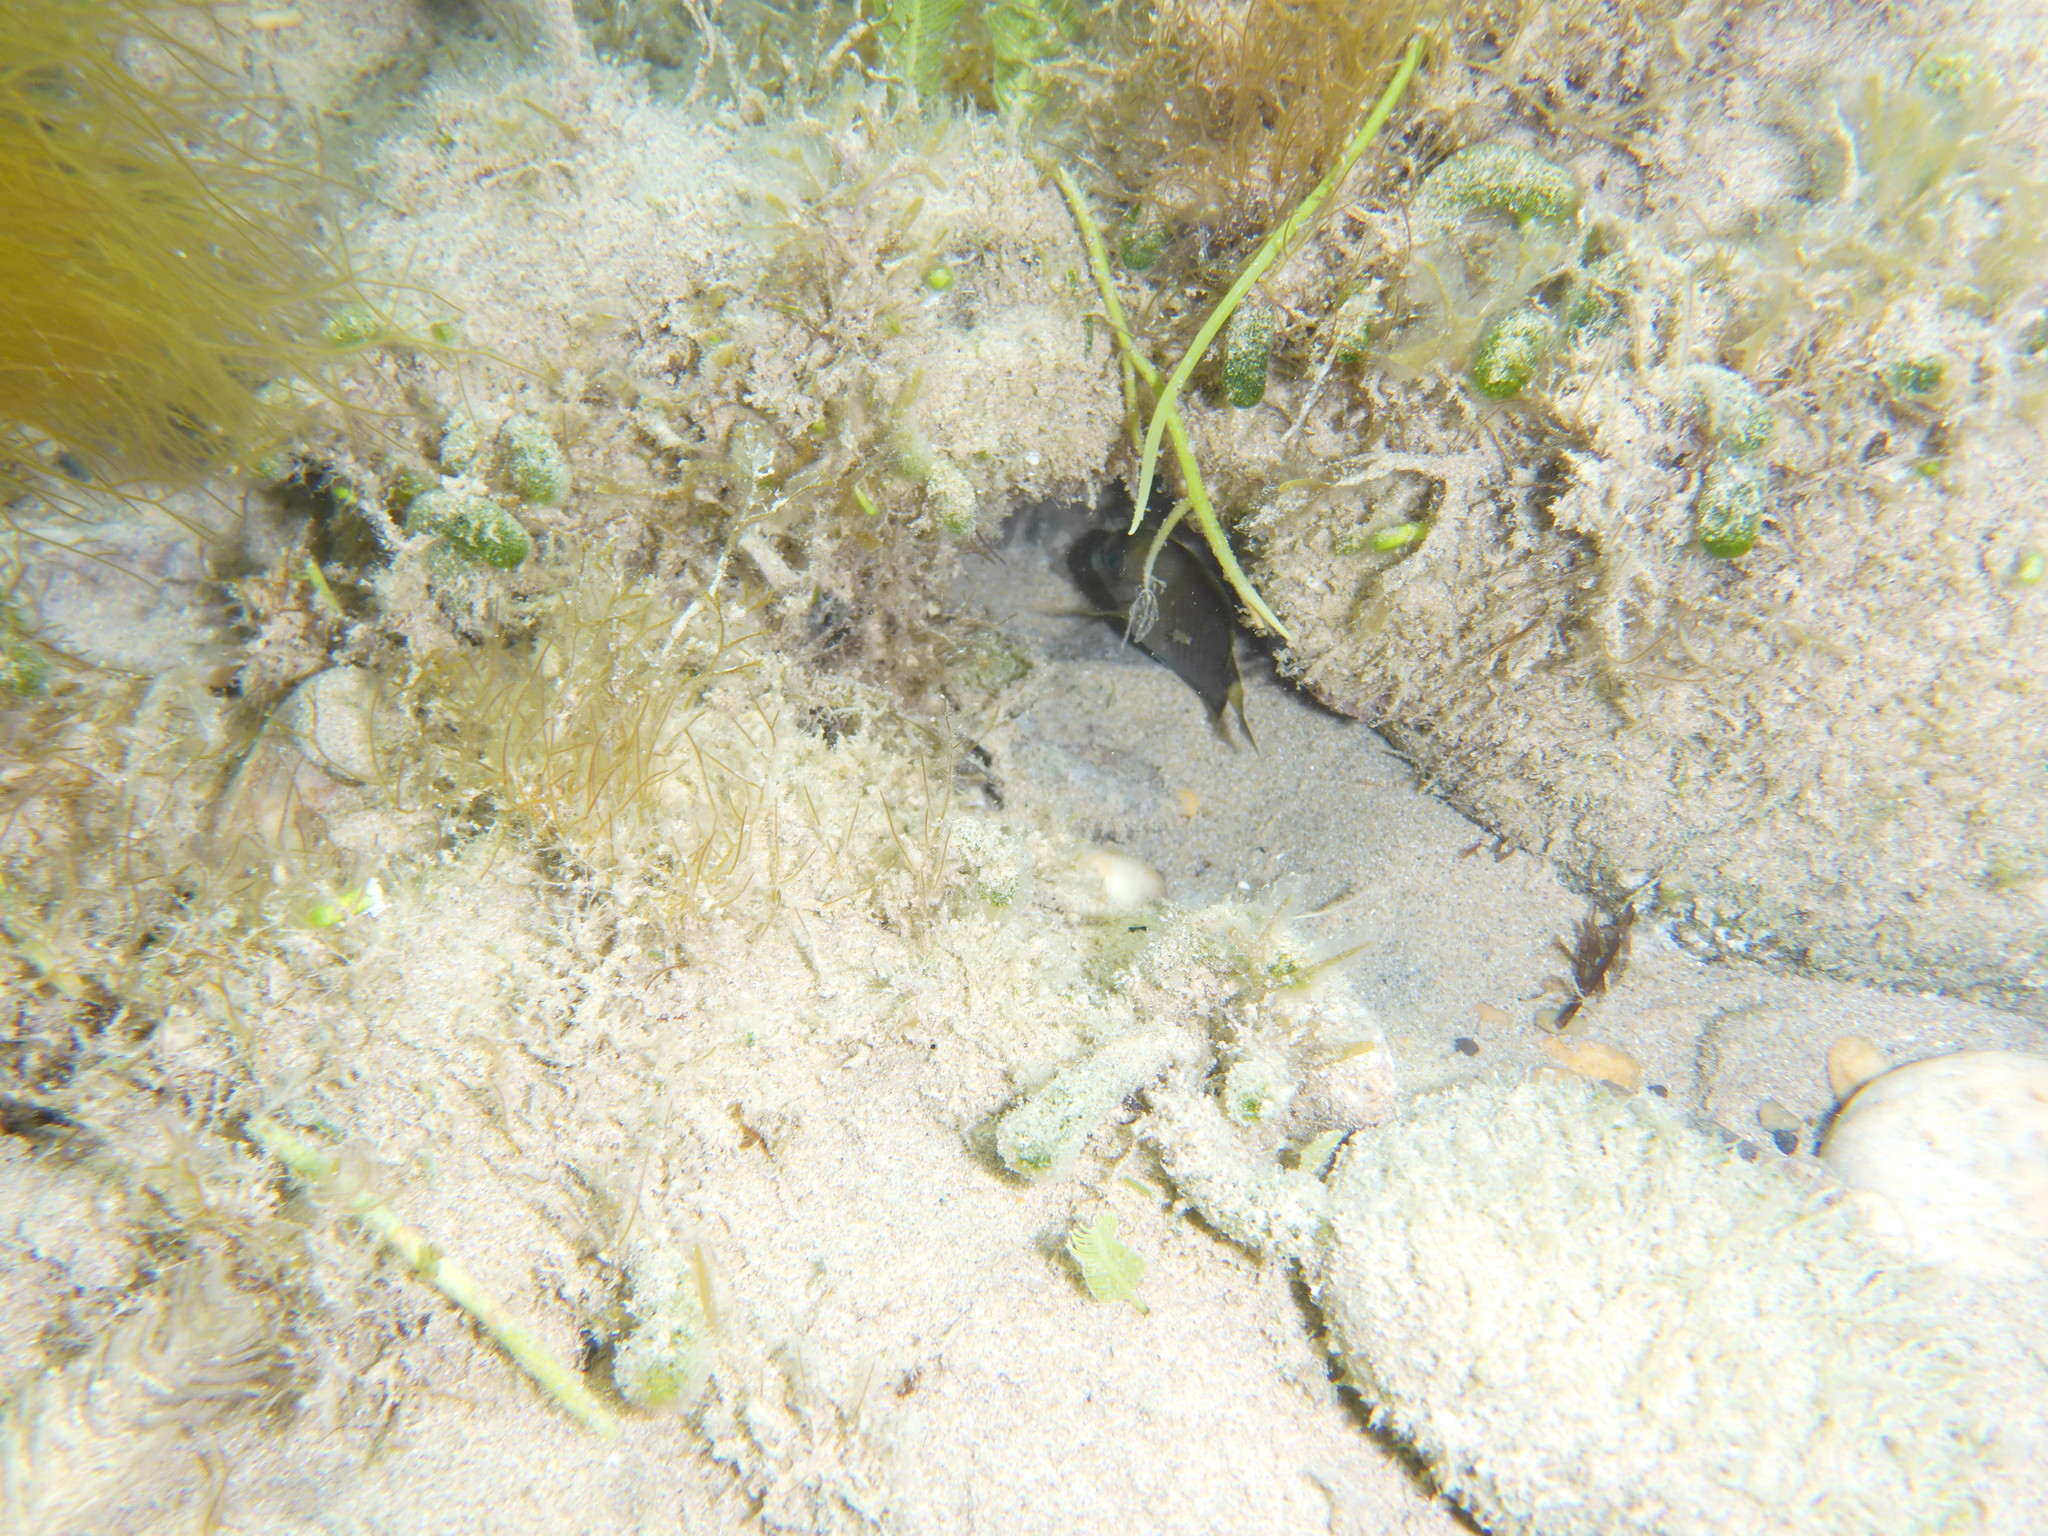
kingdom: Animalia
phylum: Chordata
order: Perciformes
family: Acanthuridae
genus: Acanthurus
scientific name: Acanthurus chirurgus
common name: Doctorfish
